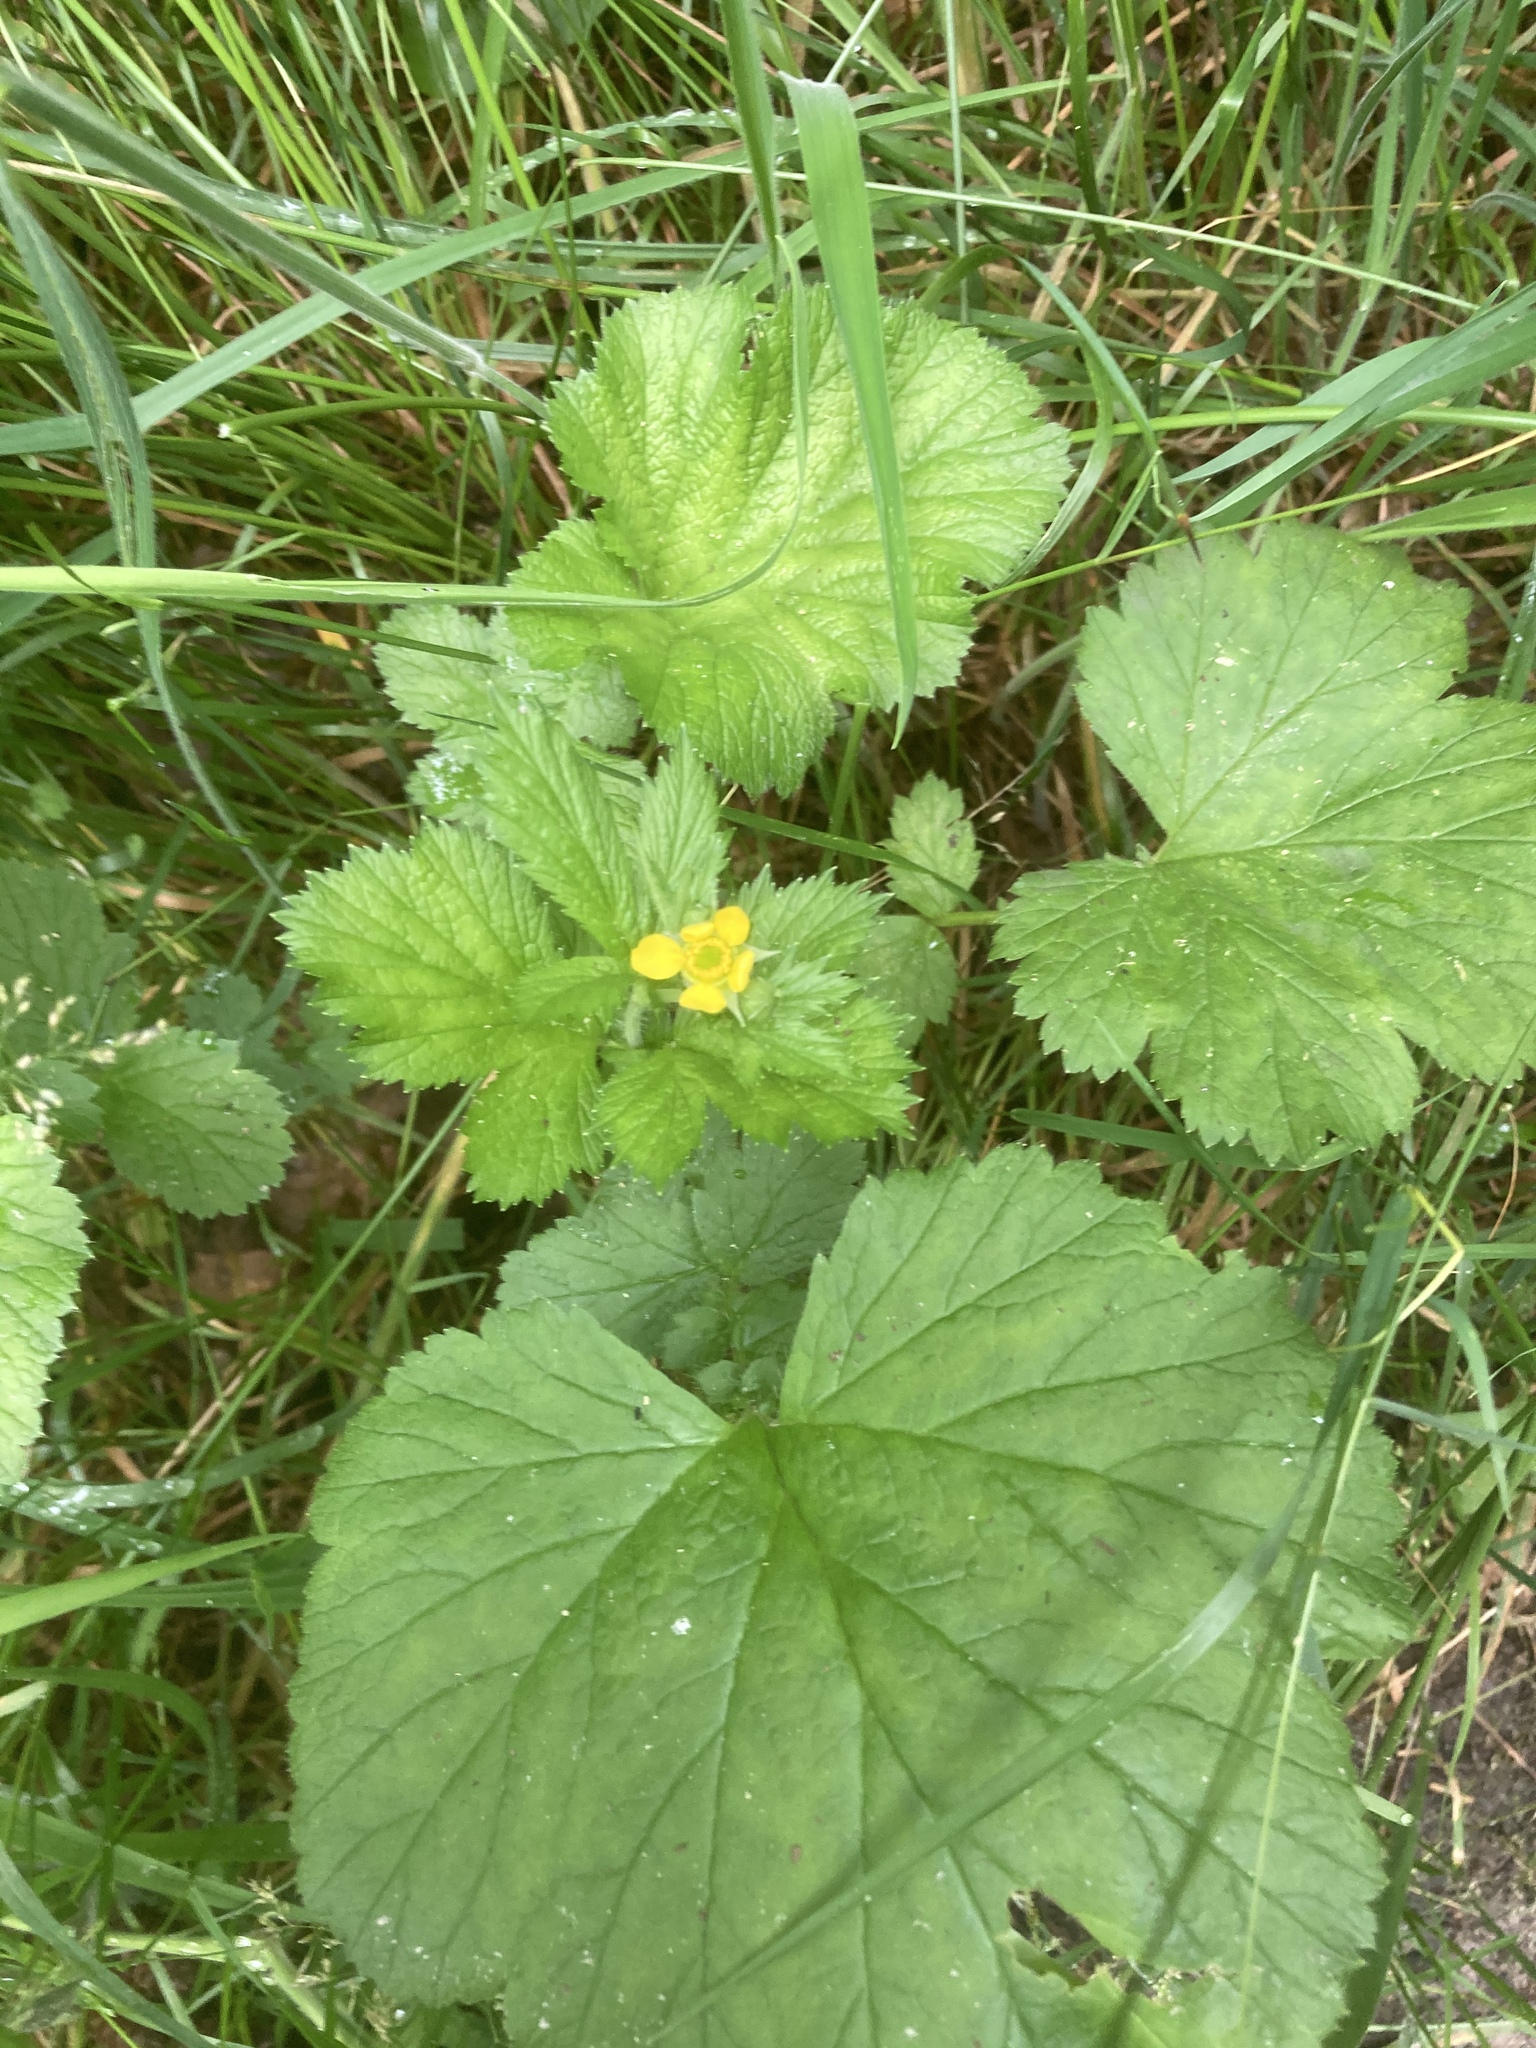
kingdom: Plantae
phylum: Tracheophyta
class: Magnoliopsida
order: Rosales
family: Rosaceae
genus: Geum
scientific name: Geum macrophyllum
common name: Large-leaved avens
